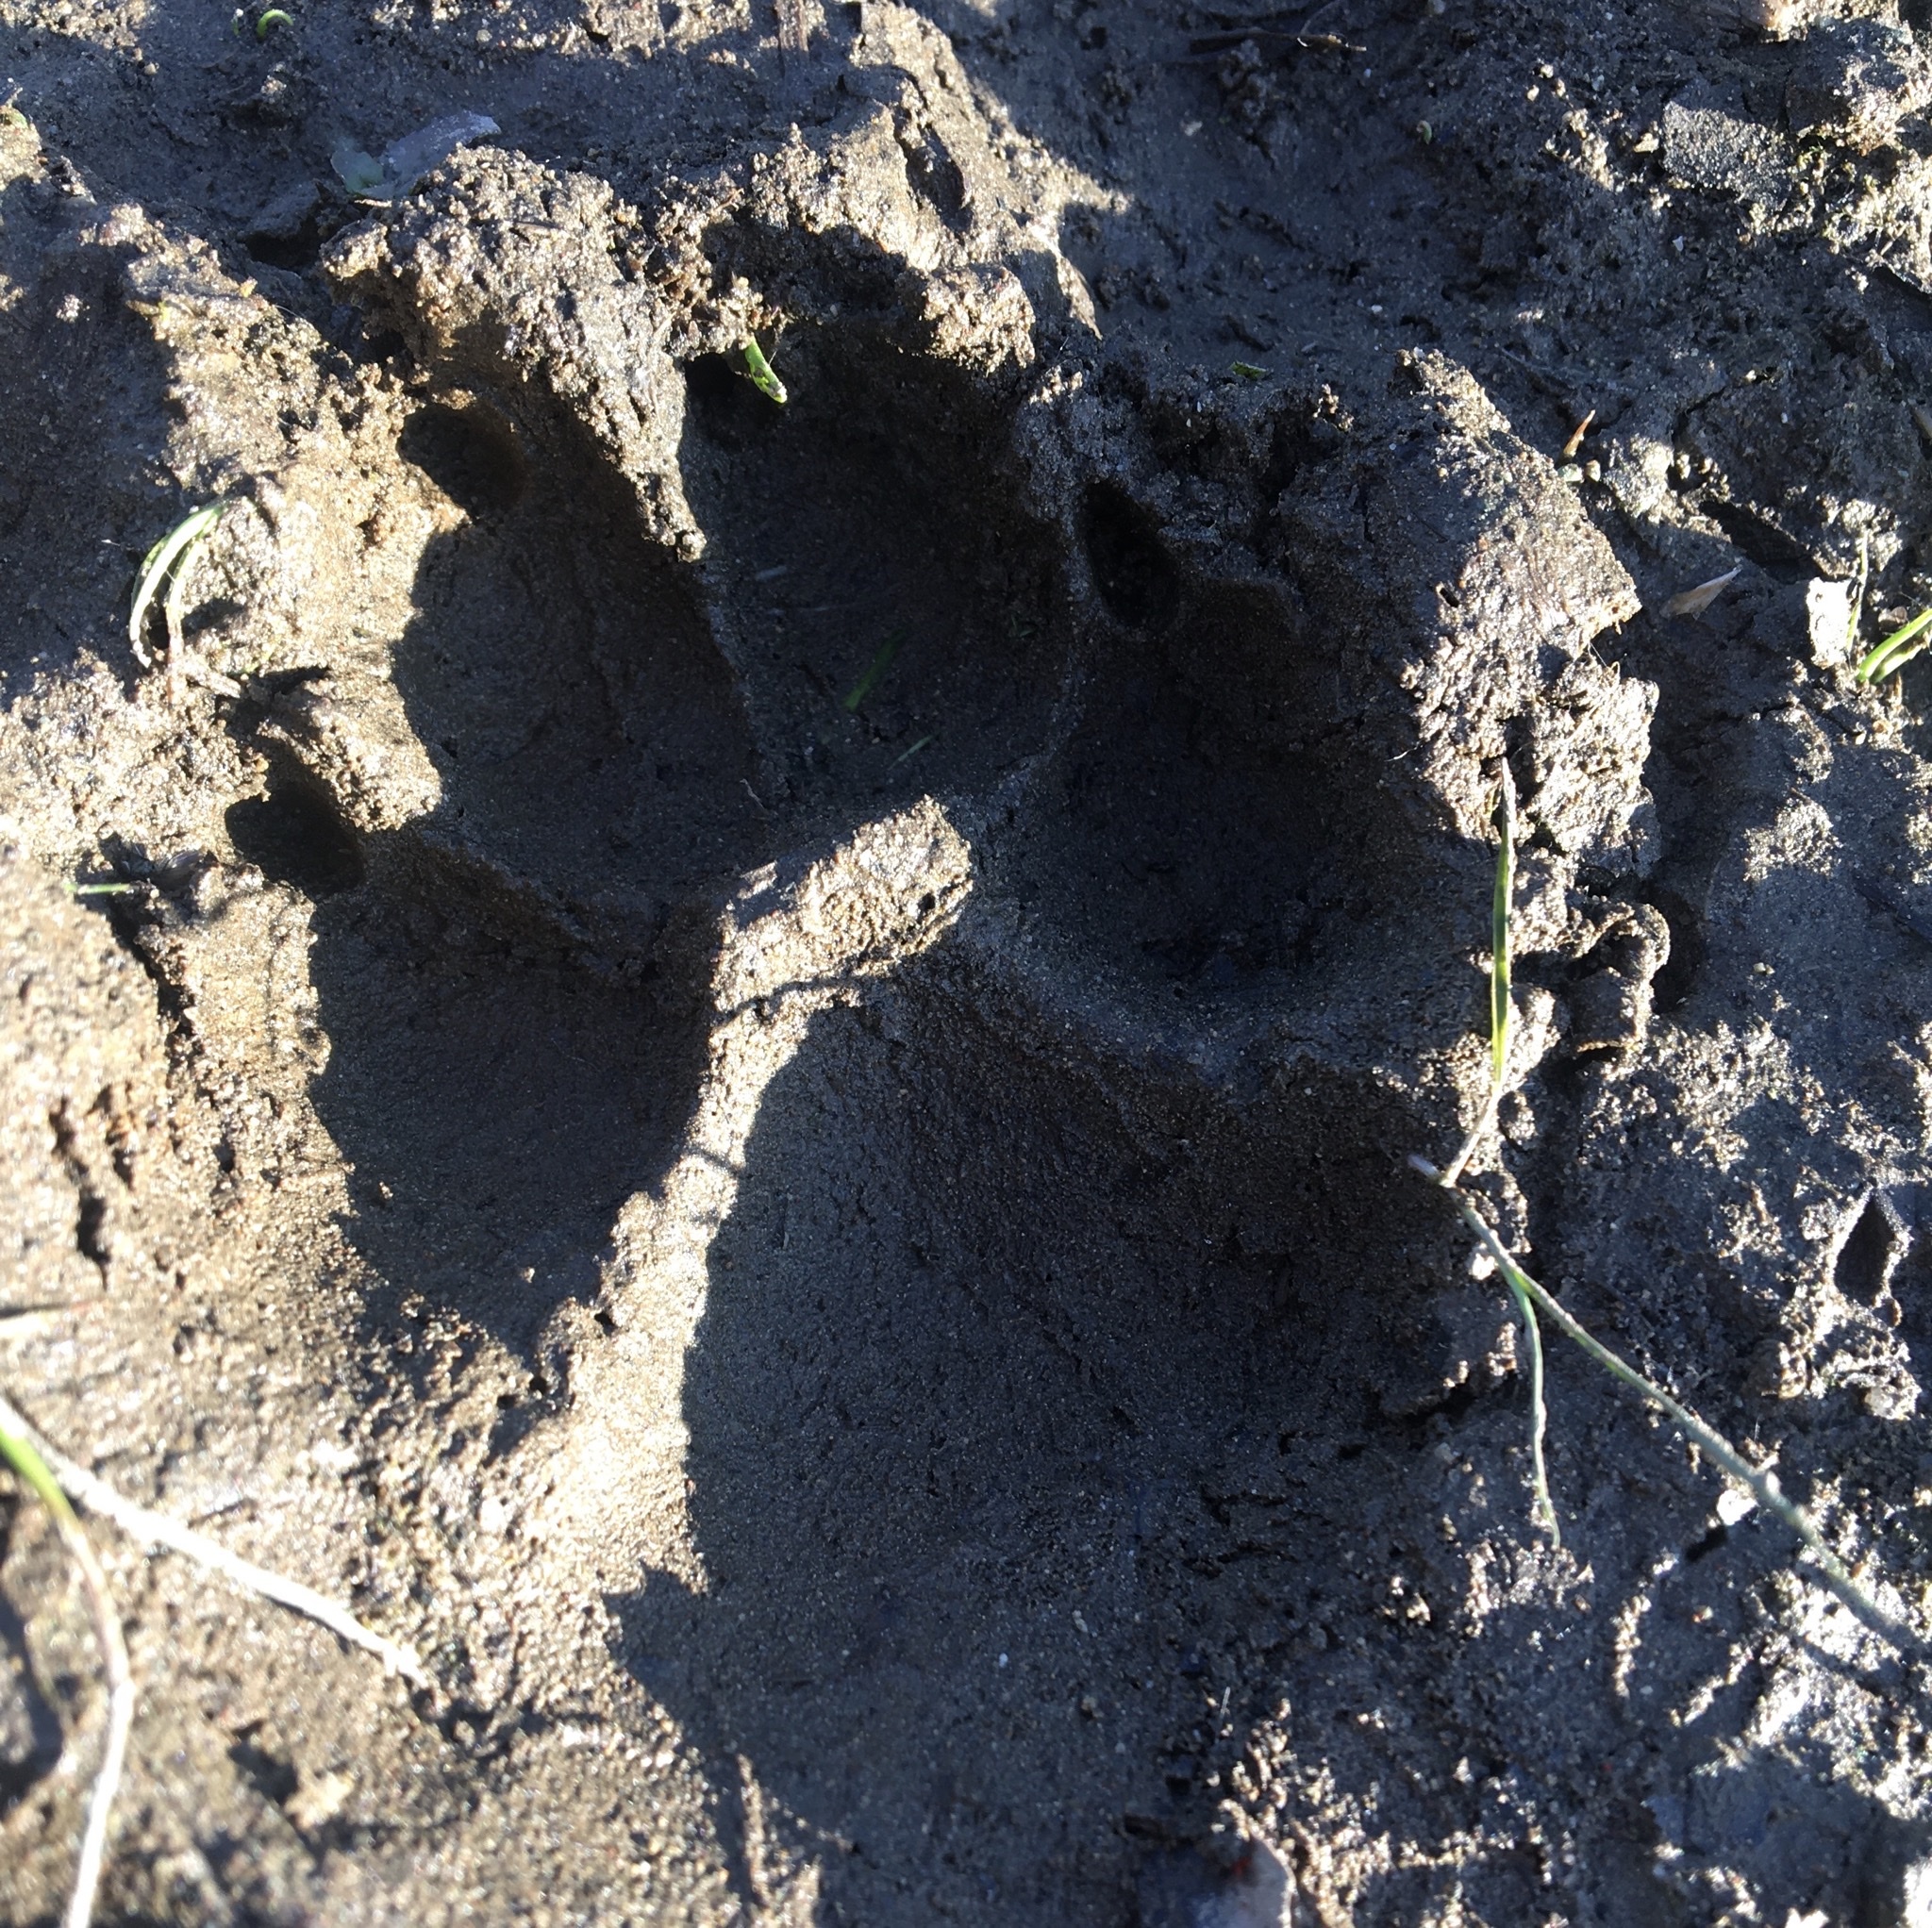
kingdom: Animalia
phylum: Chordata
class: Mammalia
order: Carnivora
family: Canidae
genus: Canis
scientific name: Canis lupus
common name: Gray wolf
